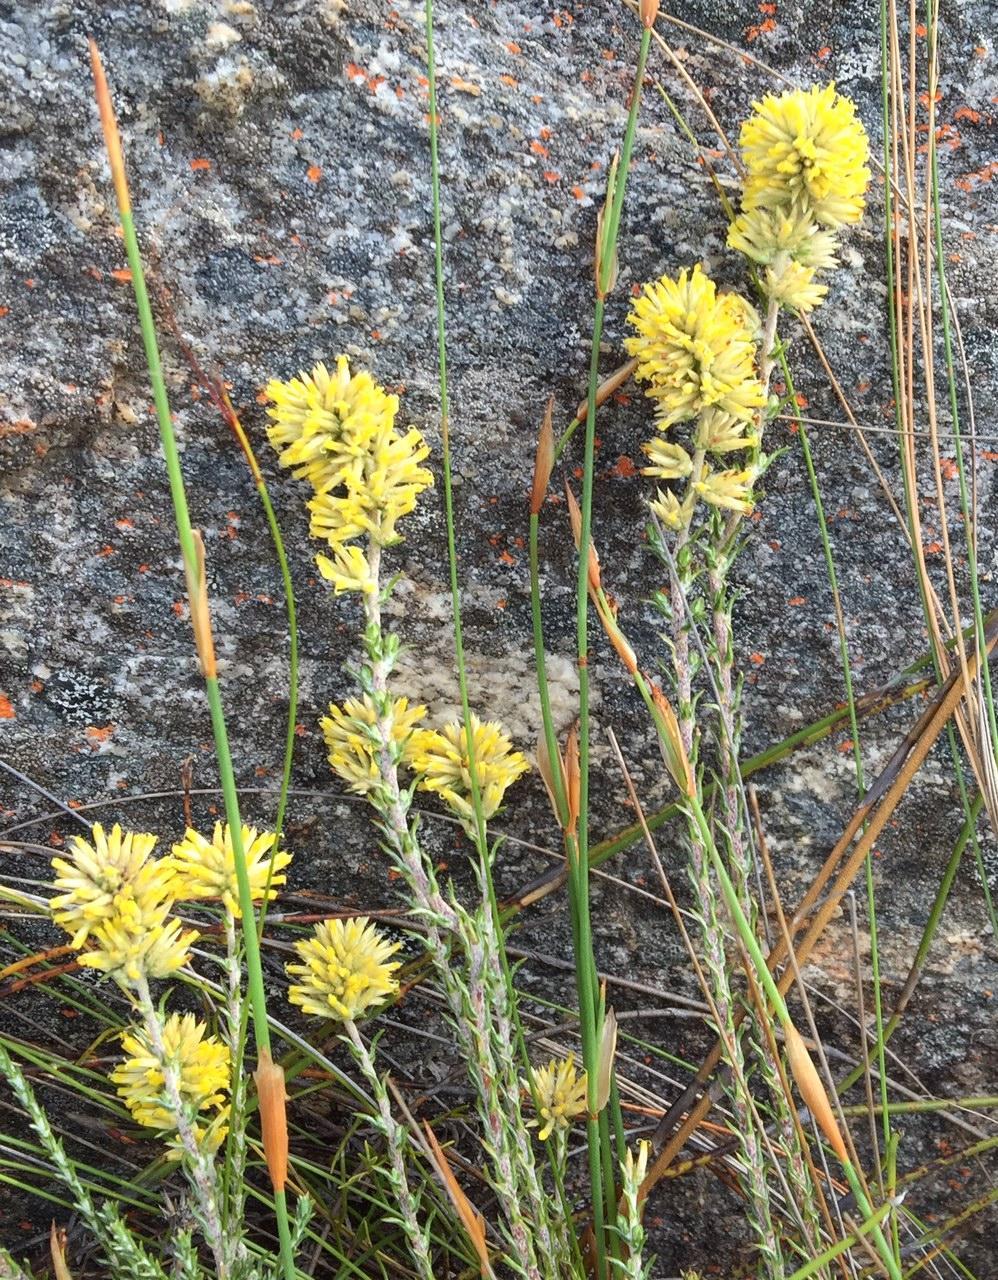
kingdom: Plantae
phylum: Tracheophyta
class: Magnoliopsida
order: Asterales
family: Asteraceae
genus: Seriphium
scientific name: Seriphium spirale
